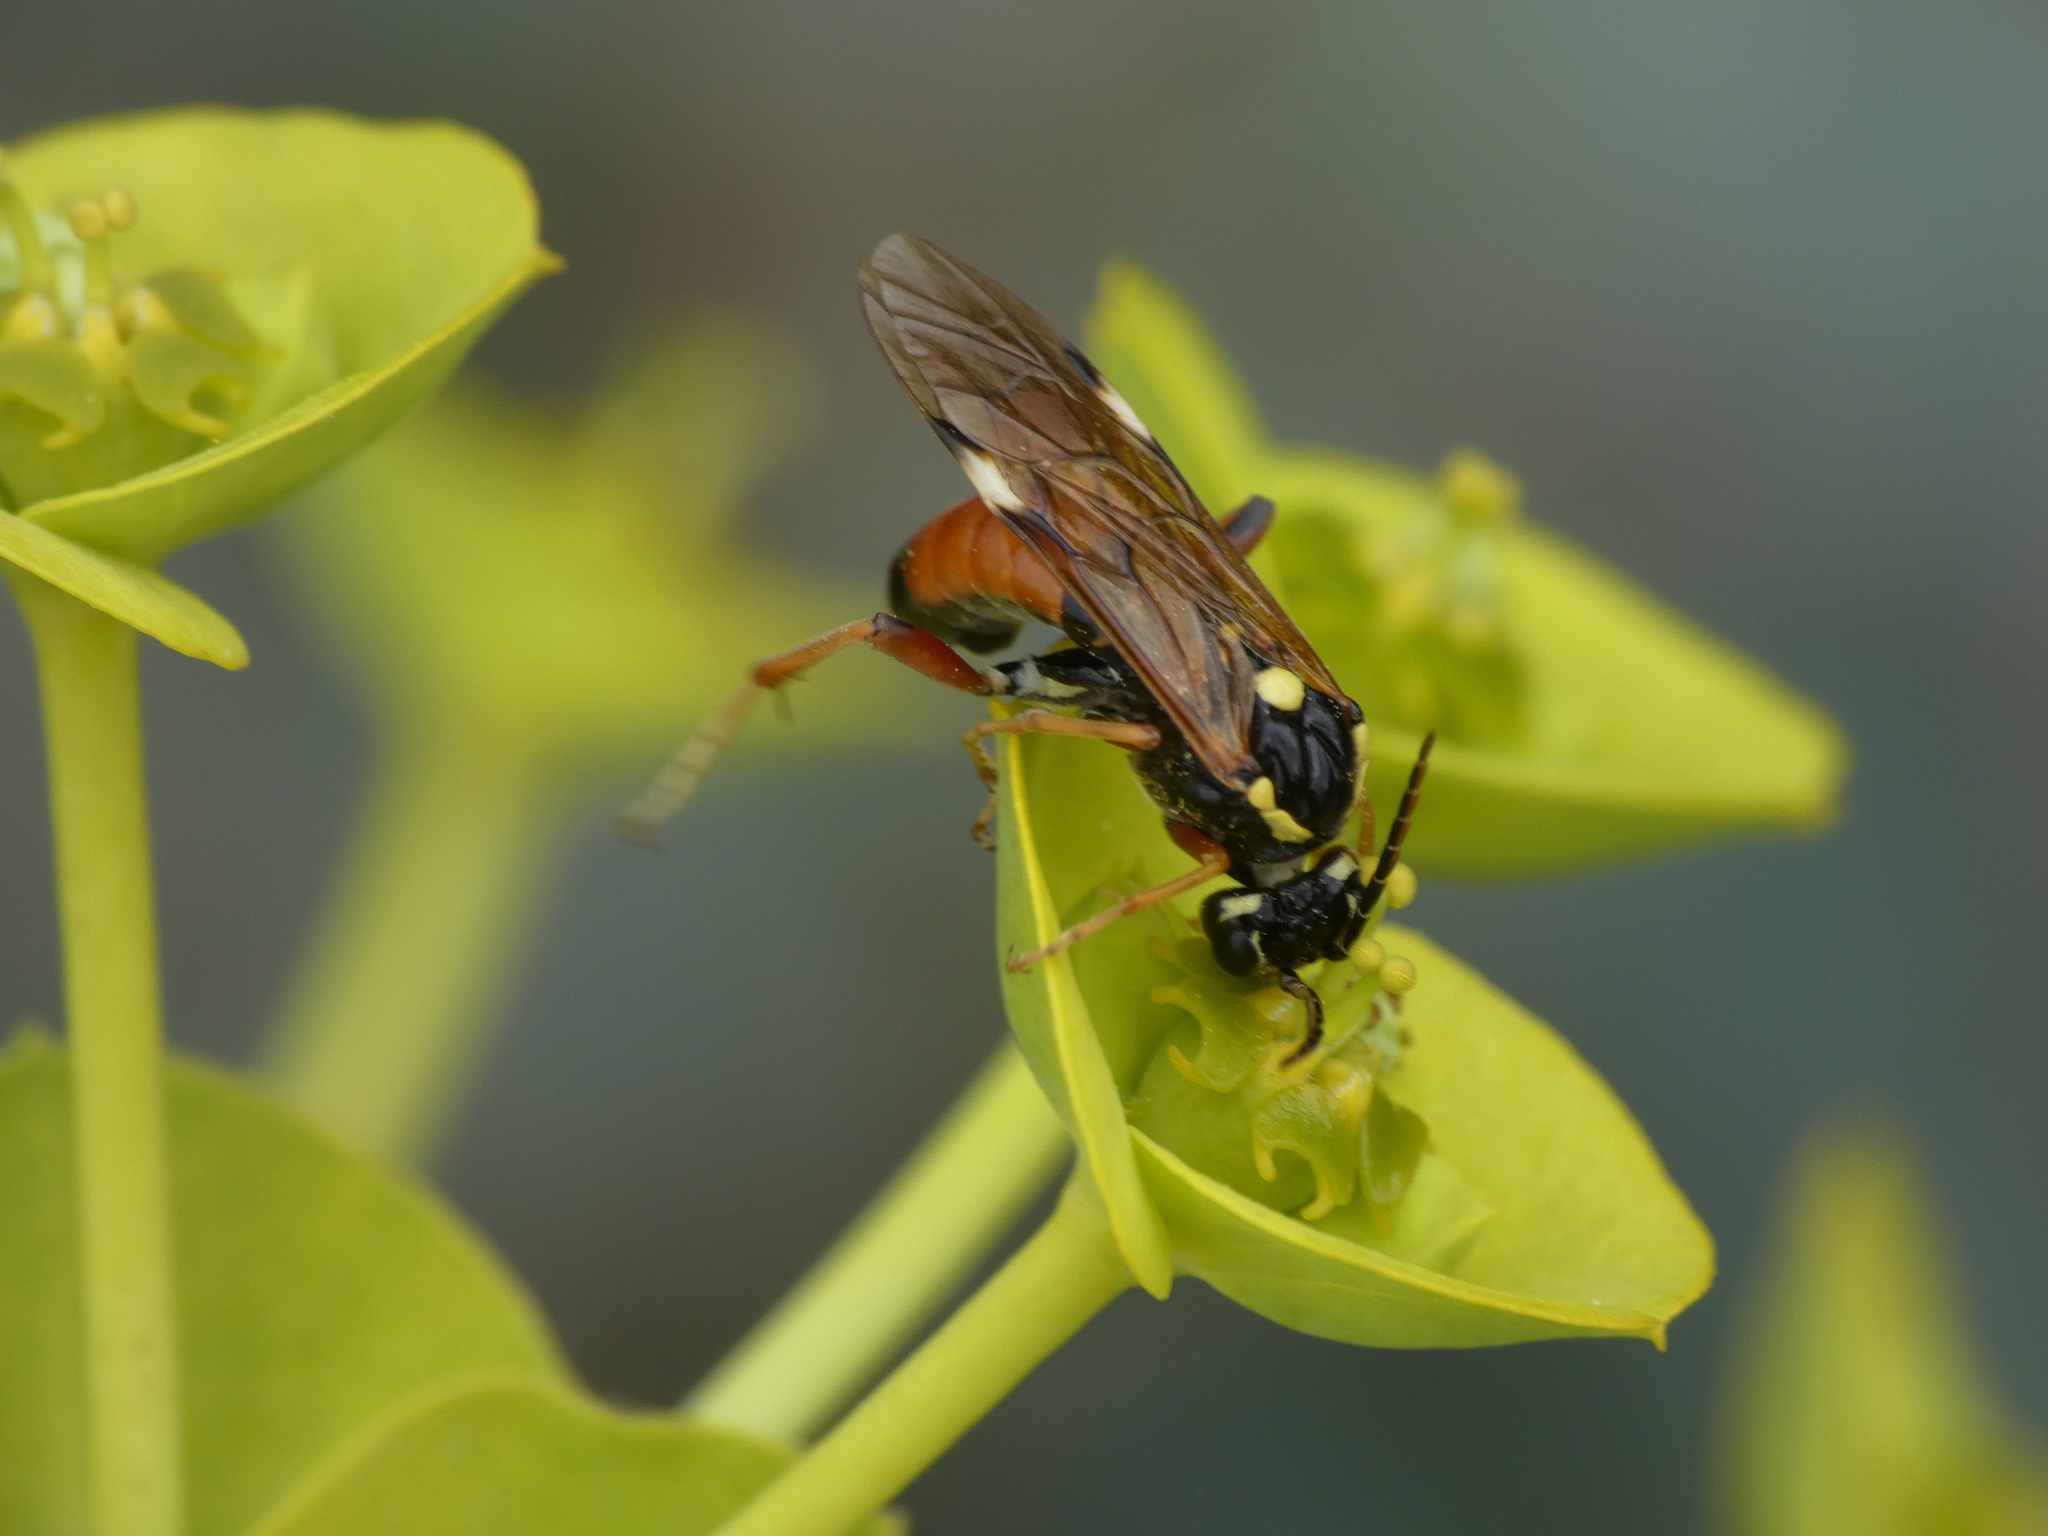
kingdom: Animalia
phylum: Arthropoda
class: Insecta
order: Hymenoptera
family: Tenthredinidae
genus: Tenthredopsis
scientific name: Tenthredopsis stigma
